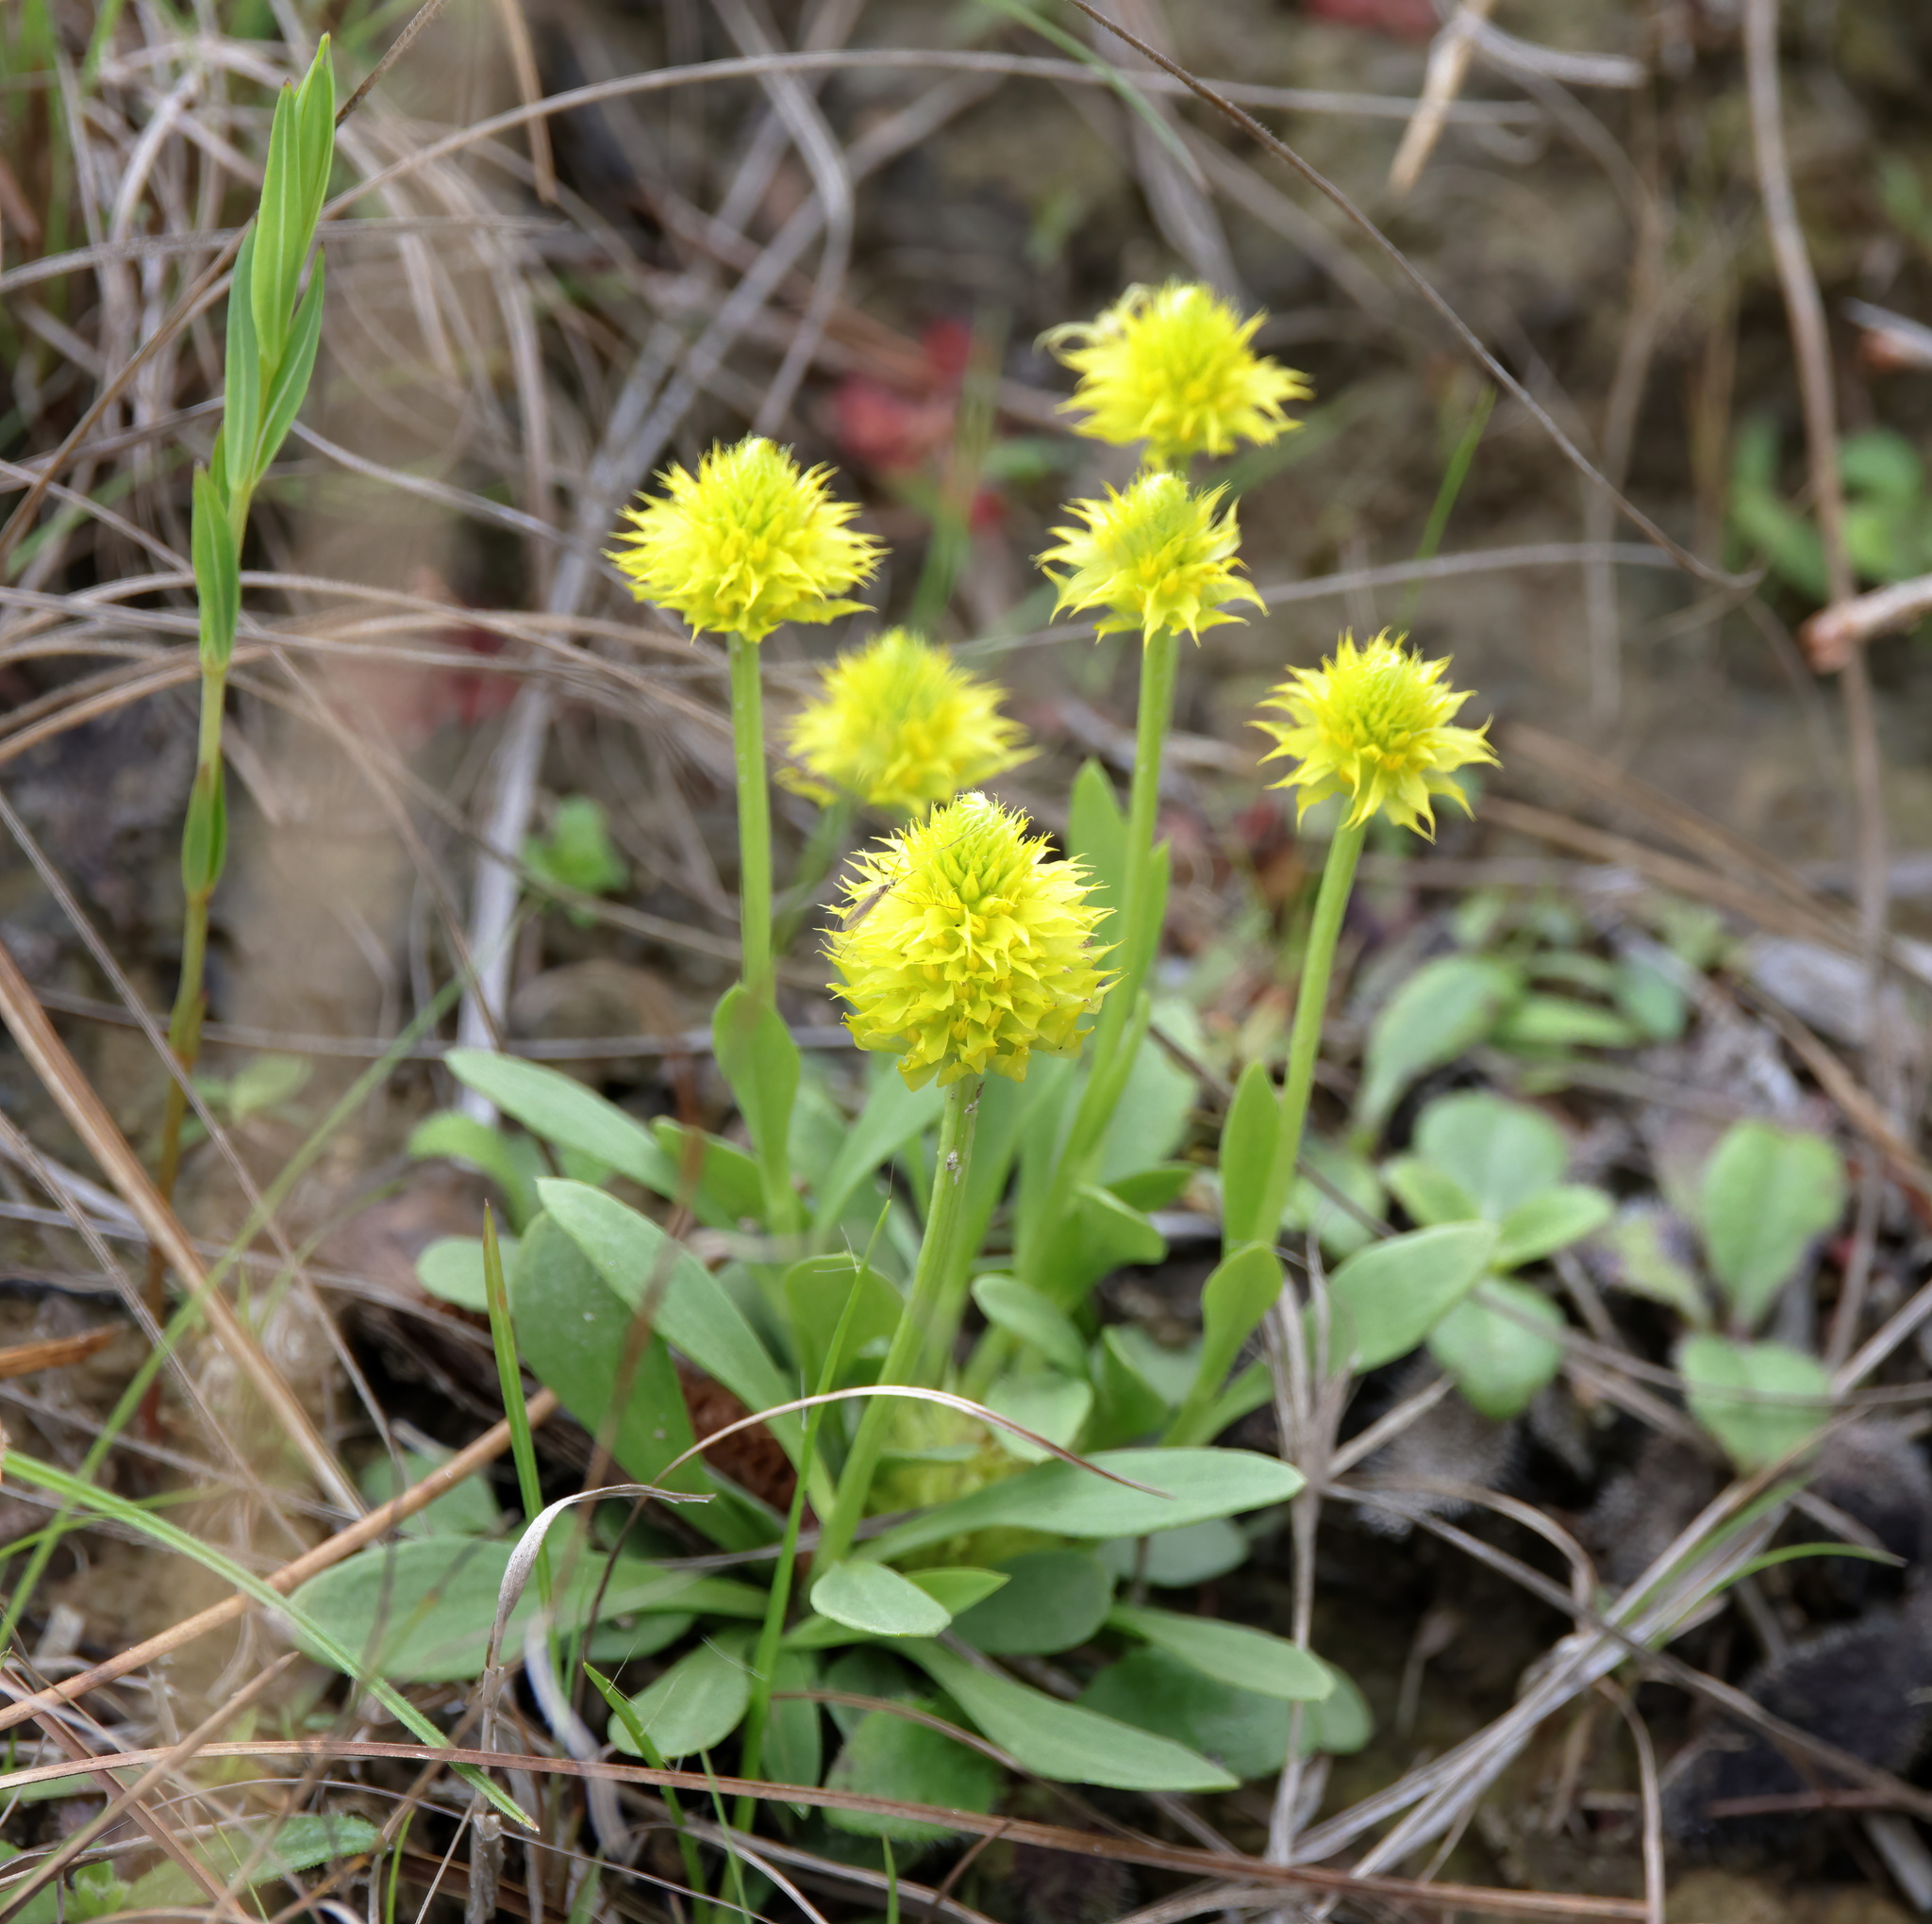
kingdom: Plantae
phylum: Tracheophyta
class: Magnoliopsida
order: Fabales
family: Polygalaceae
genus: Polygala
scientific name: Polygala nana
